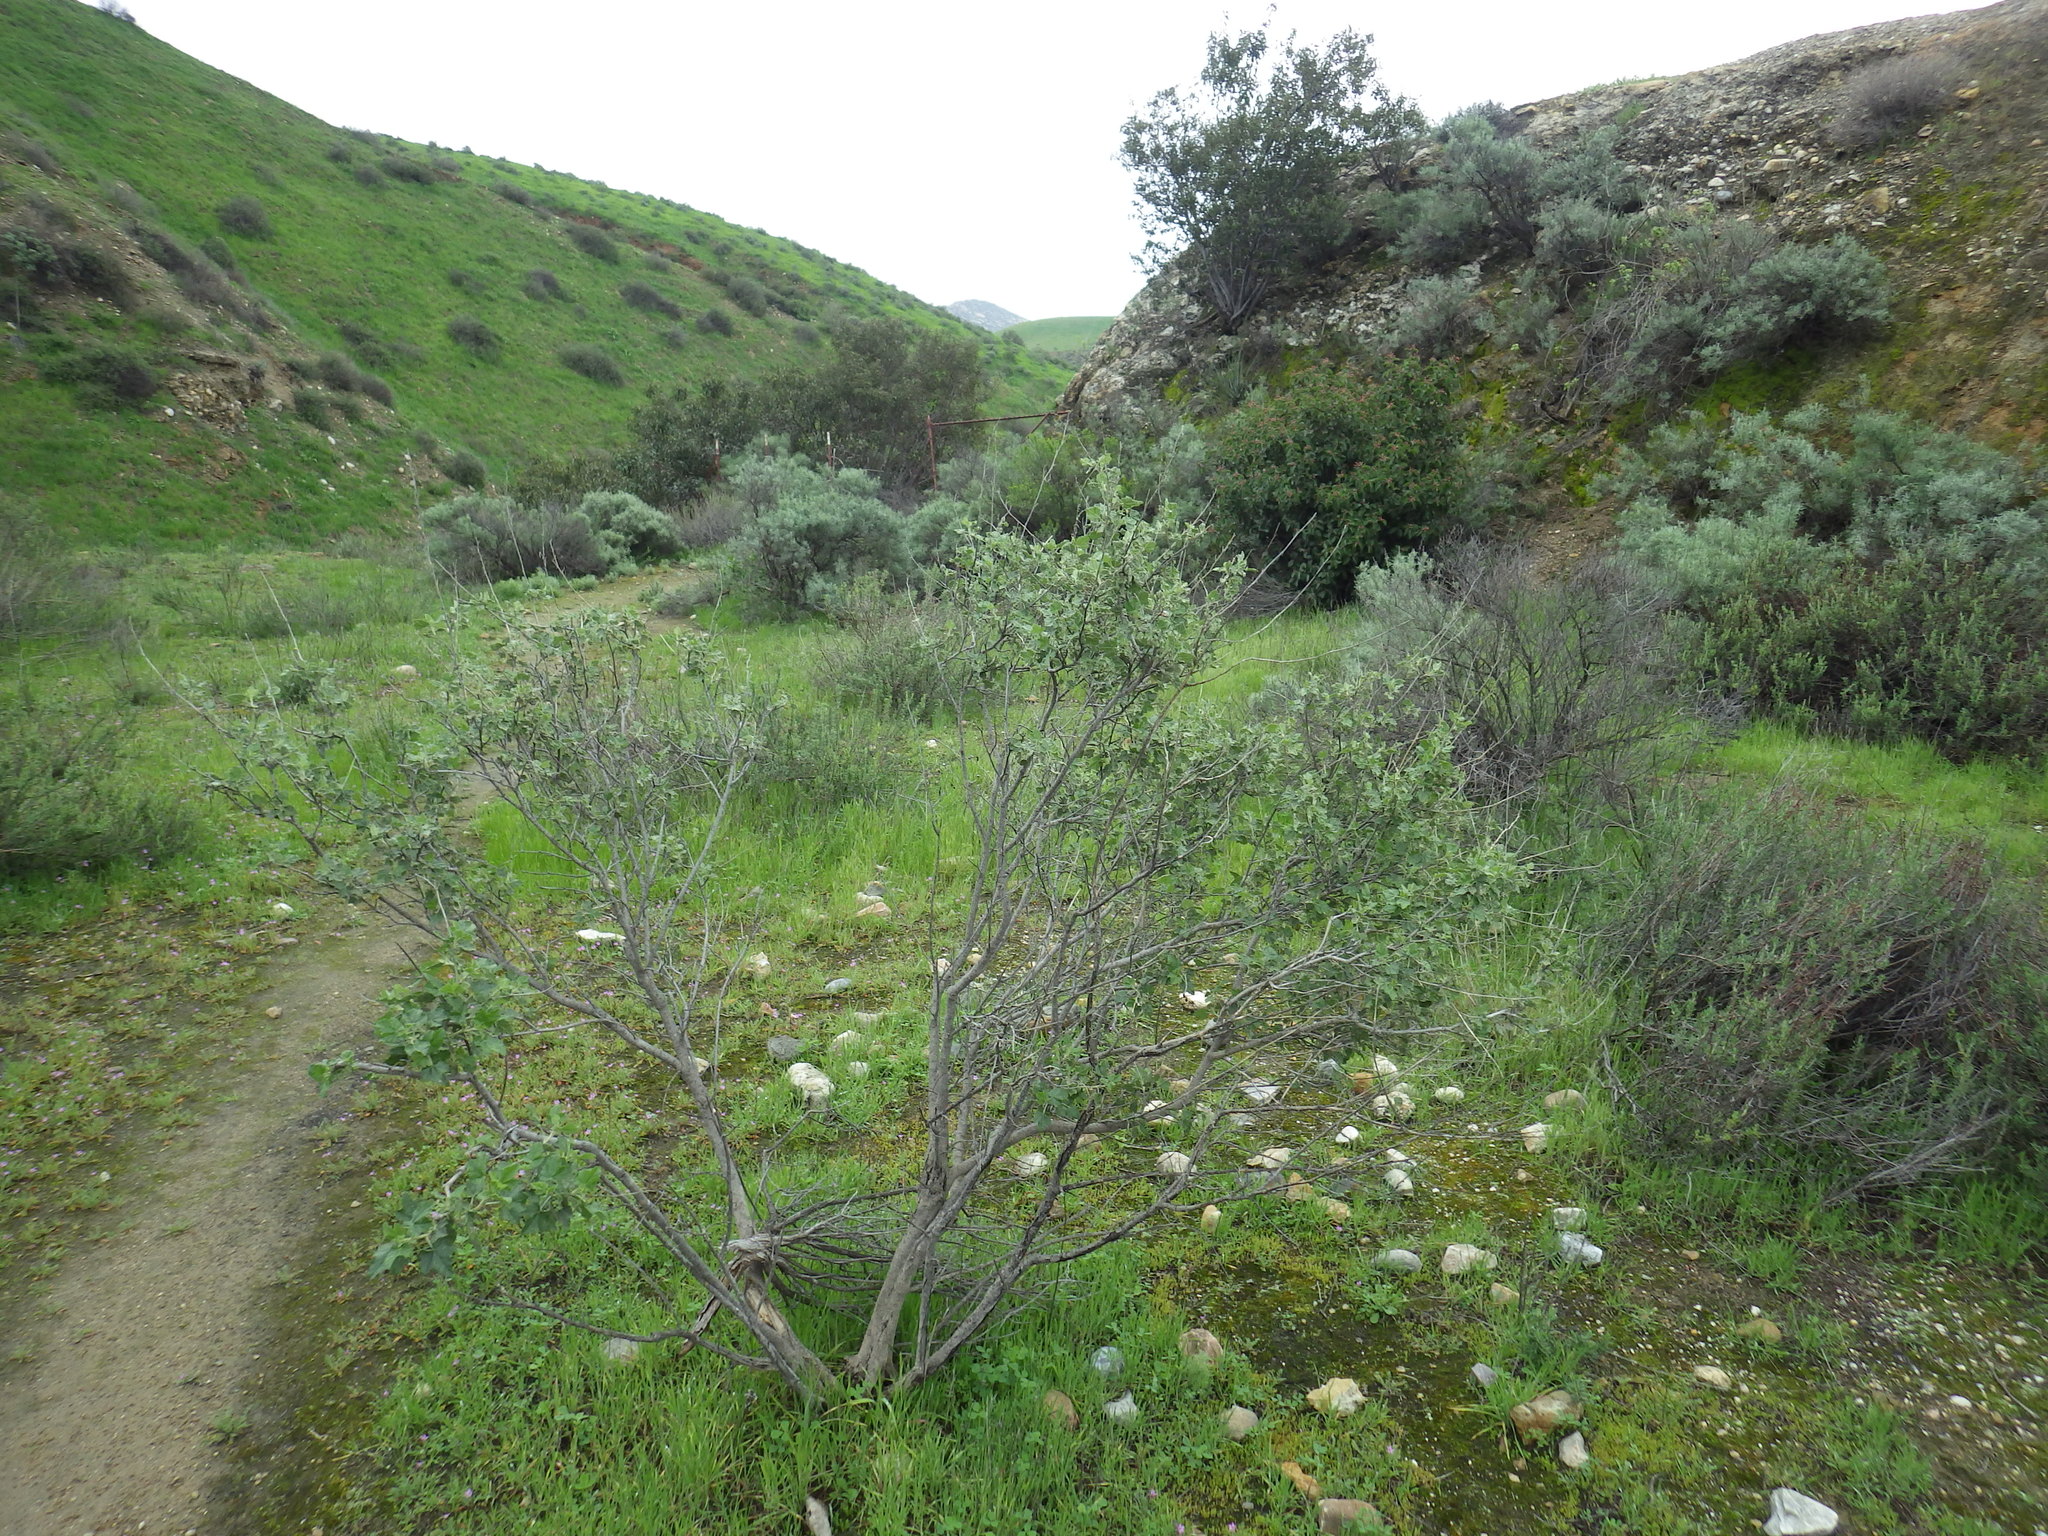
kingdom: Plantae
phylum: Tracheophyta
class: Magnoliopsida
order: Malvales
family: Malvaceae
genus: Malacothamnus
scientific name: Malacothamnus fasciculatus
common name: Sant cruz island bush-mallow
